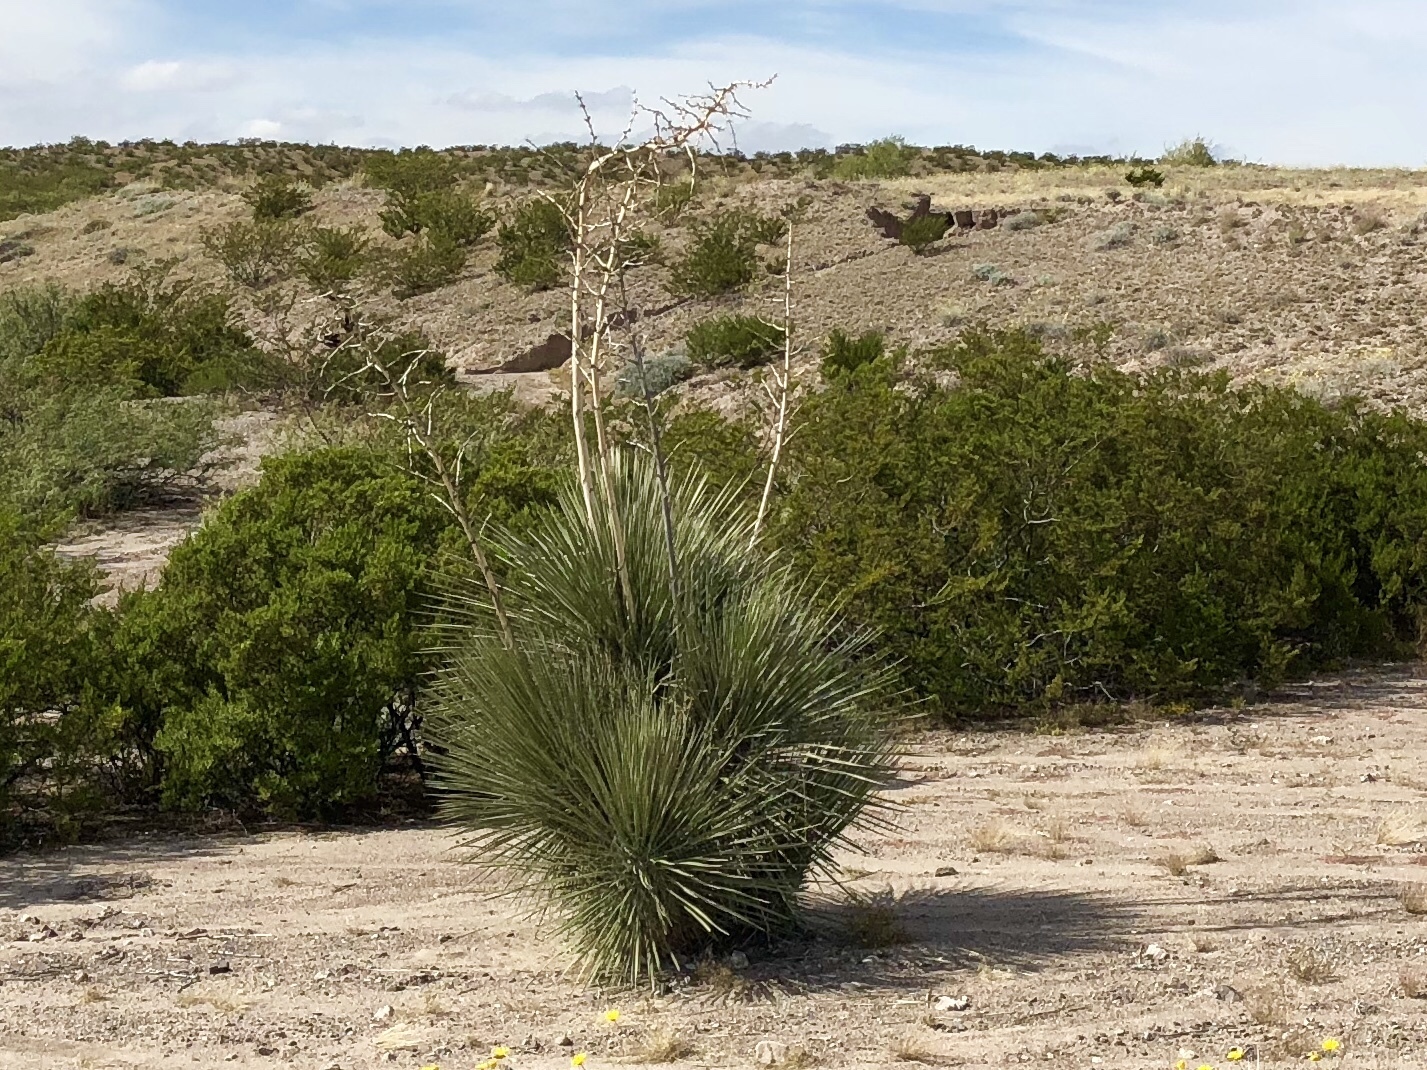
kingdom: Plantae
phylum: Tracheophyta
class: Liliopsida
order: Asparagales
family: Asparagaceae
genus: Yucca
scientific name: Yucca elata
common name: Palmella
